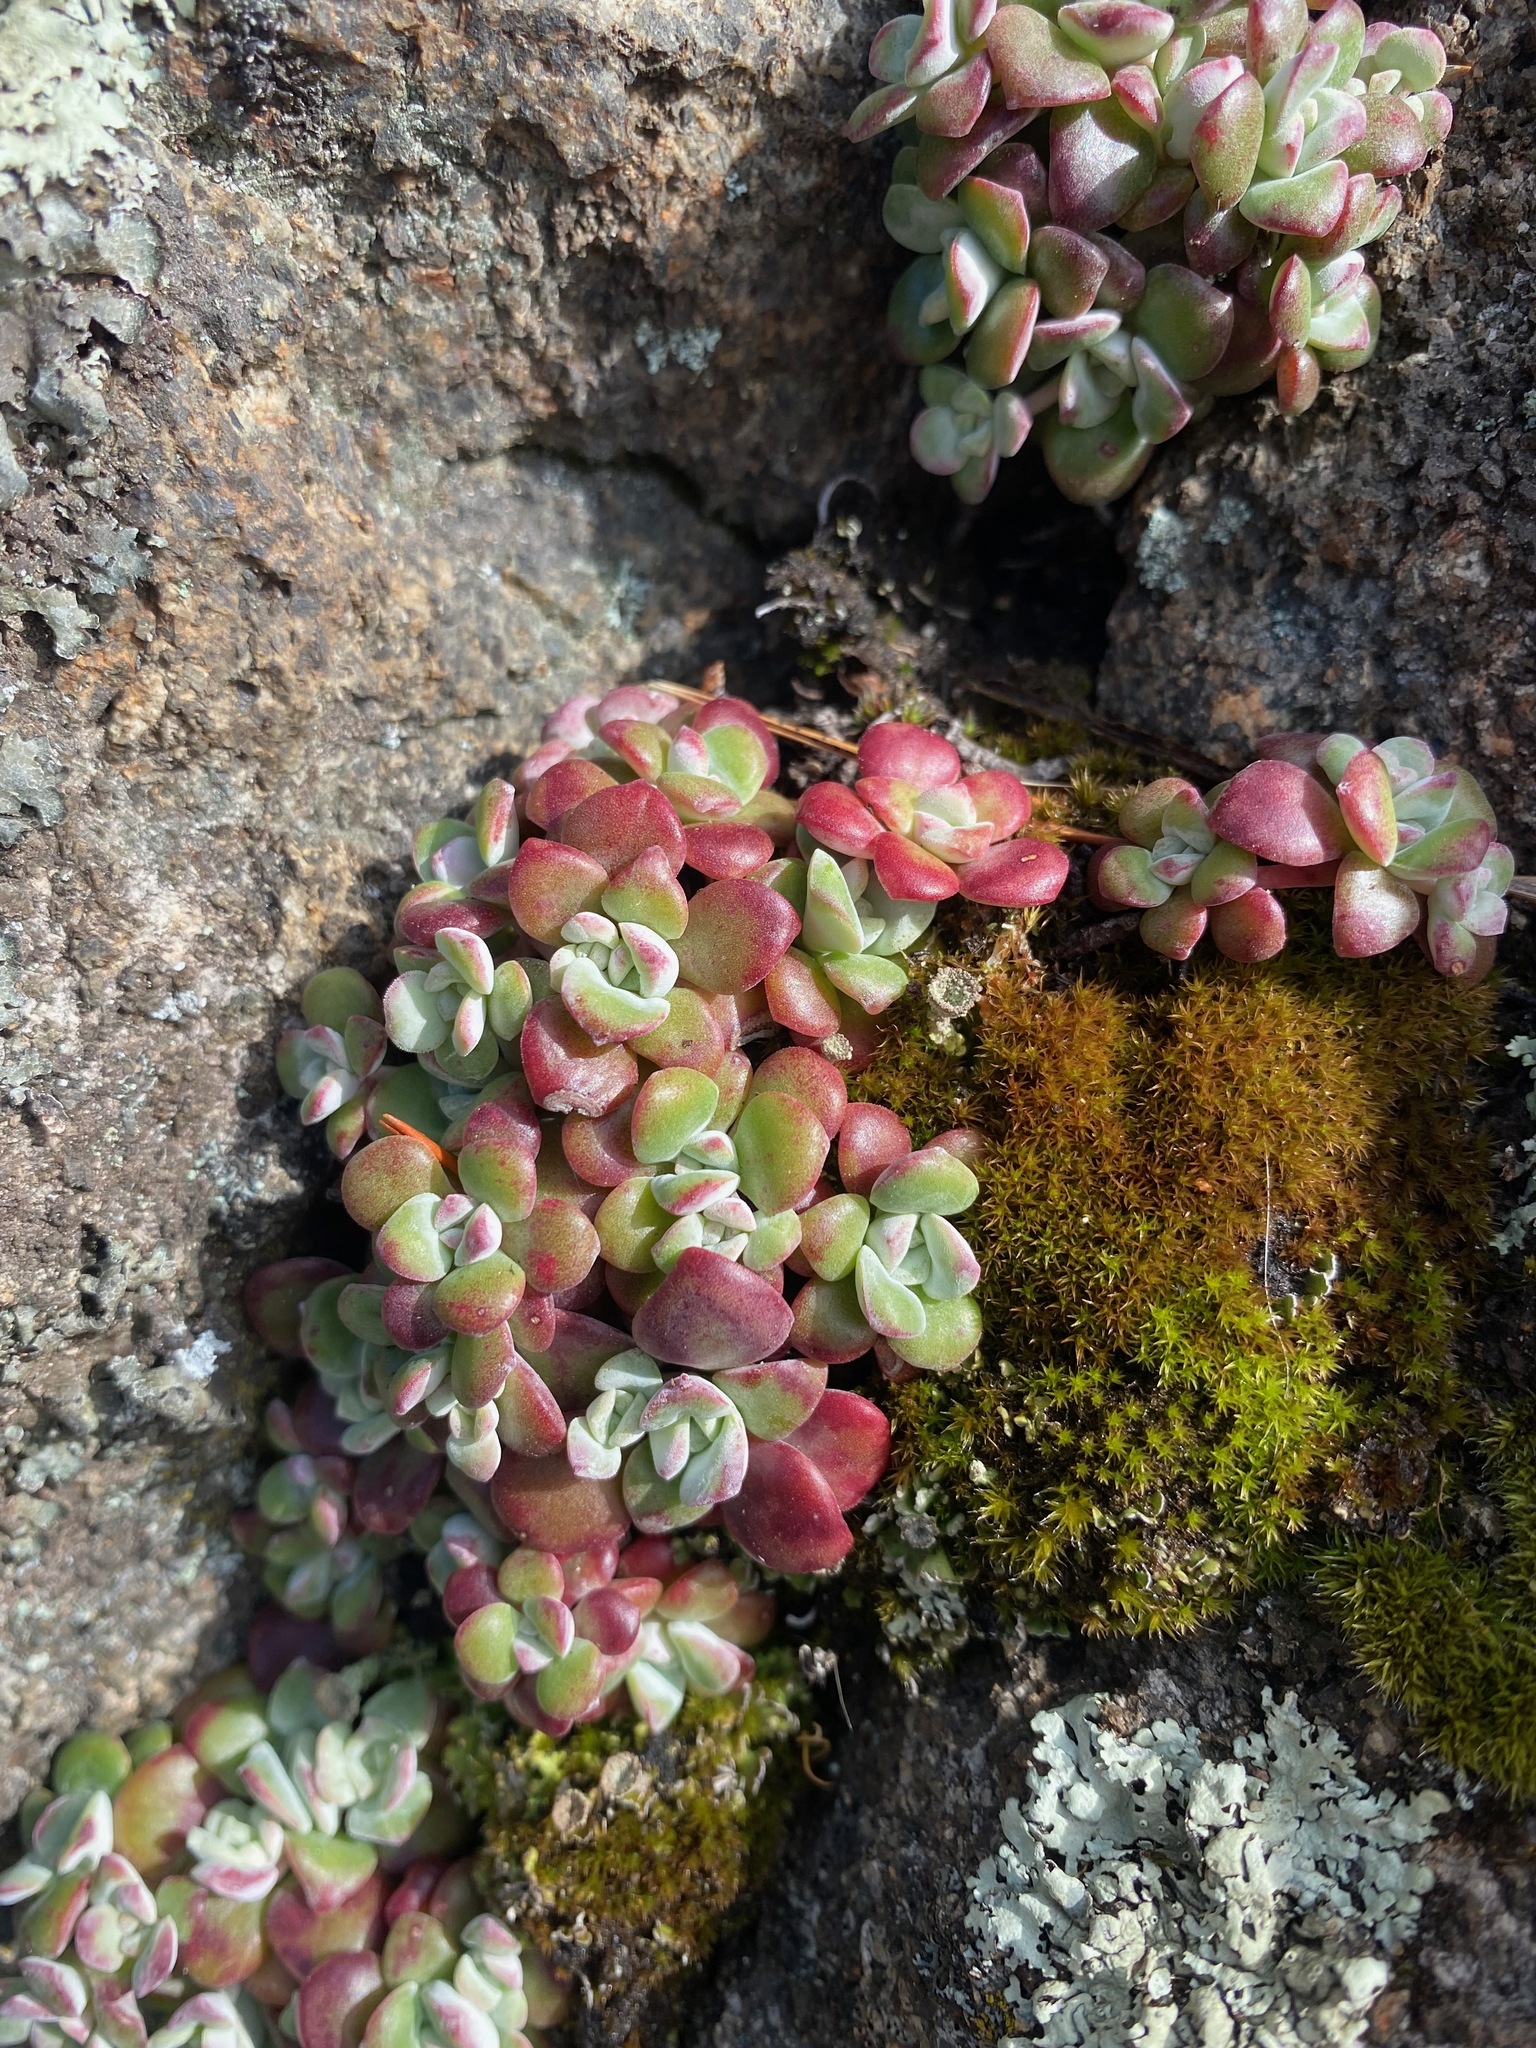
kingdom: Plantae
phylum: Tracheophyta
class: Magnoliopsida
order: Saxifragales
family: Crassulaceae
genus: Sedum
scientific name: Sedum spathulifolium
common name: Colorado stonecrop
